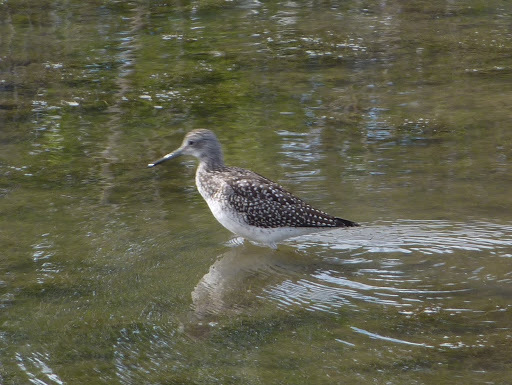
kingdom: Animalia
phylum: Chordata
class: Aves
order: Charadriiformes
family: Scolopacidae
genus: Tringa
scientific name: Tringa melanoleuca
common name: Greater yellowlegs
